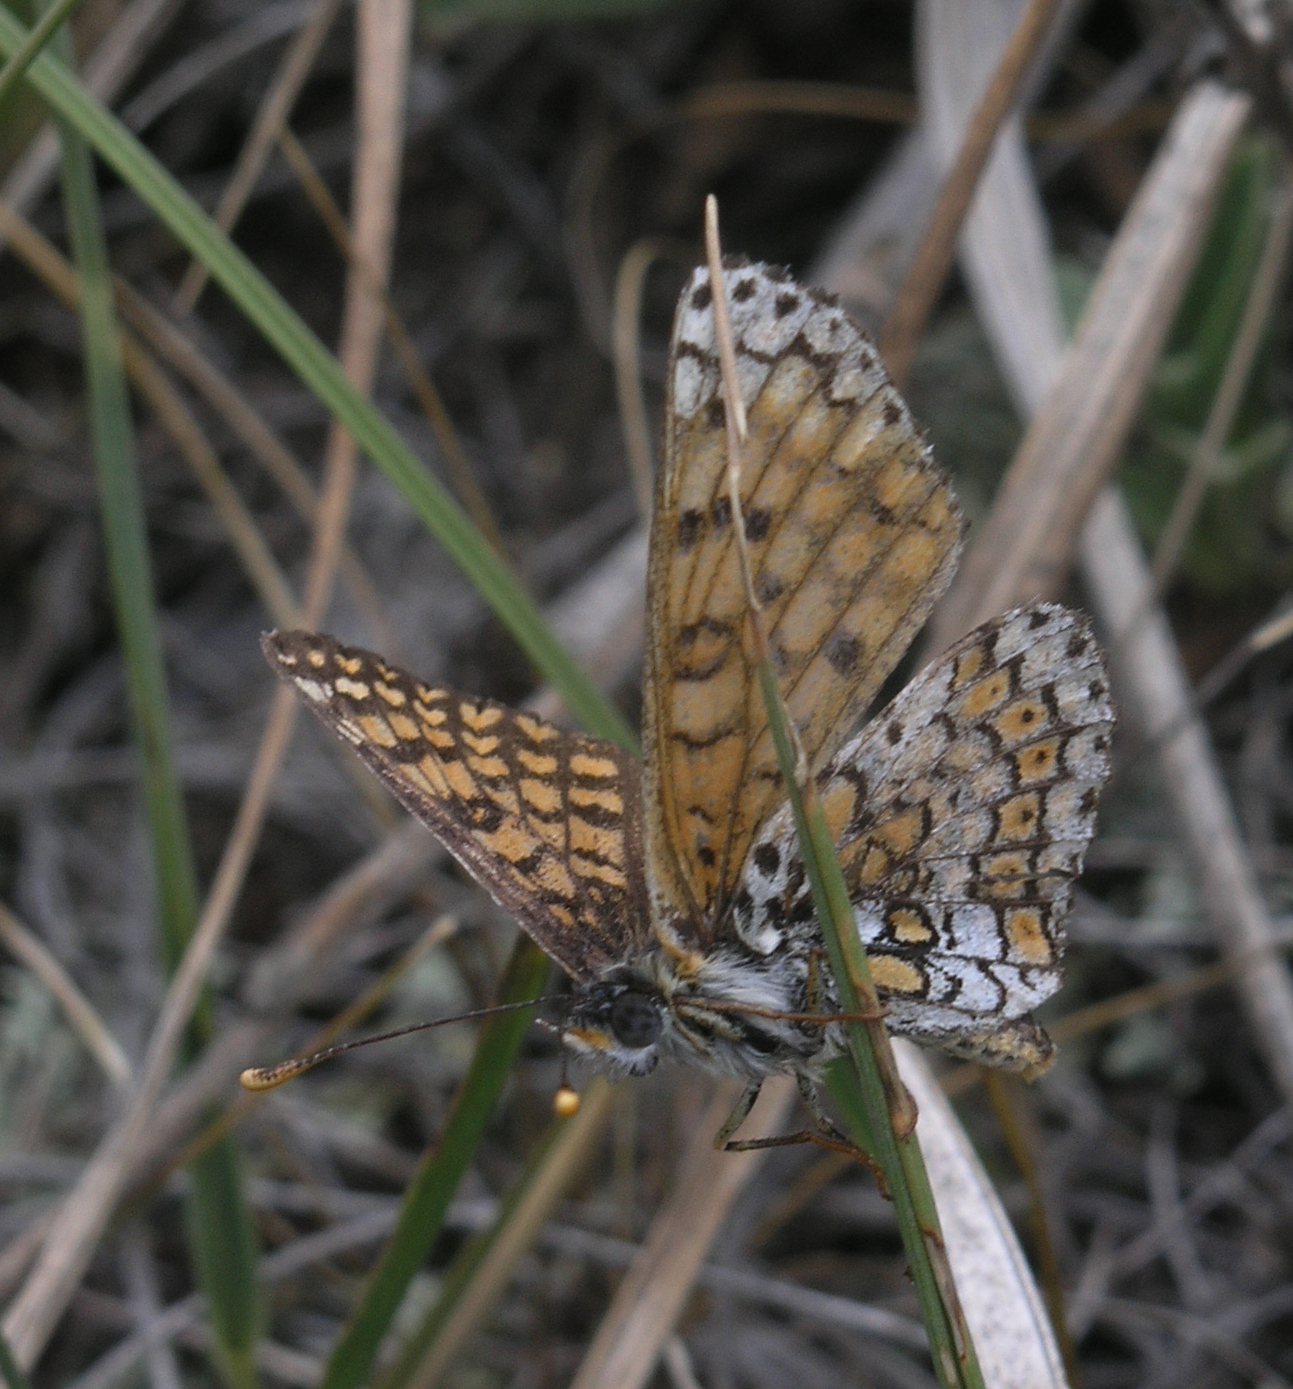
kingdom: Animalia
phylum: Arthropoda
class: Insecta
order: Lepidoptera
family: Nymphalidae
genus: Melitaea
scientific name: Melitaea cinxia
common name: Glanville fritillary
